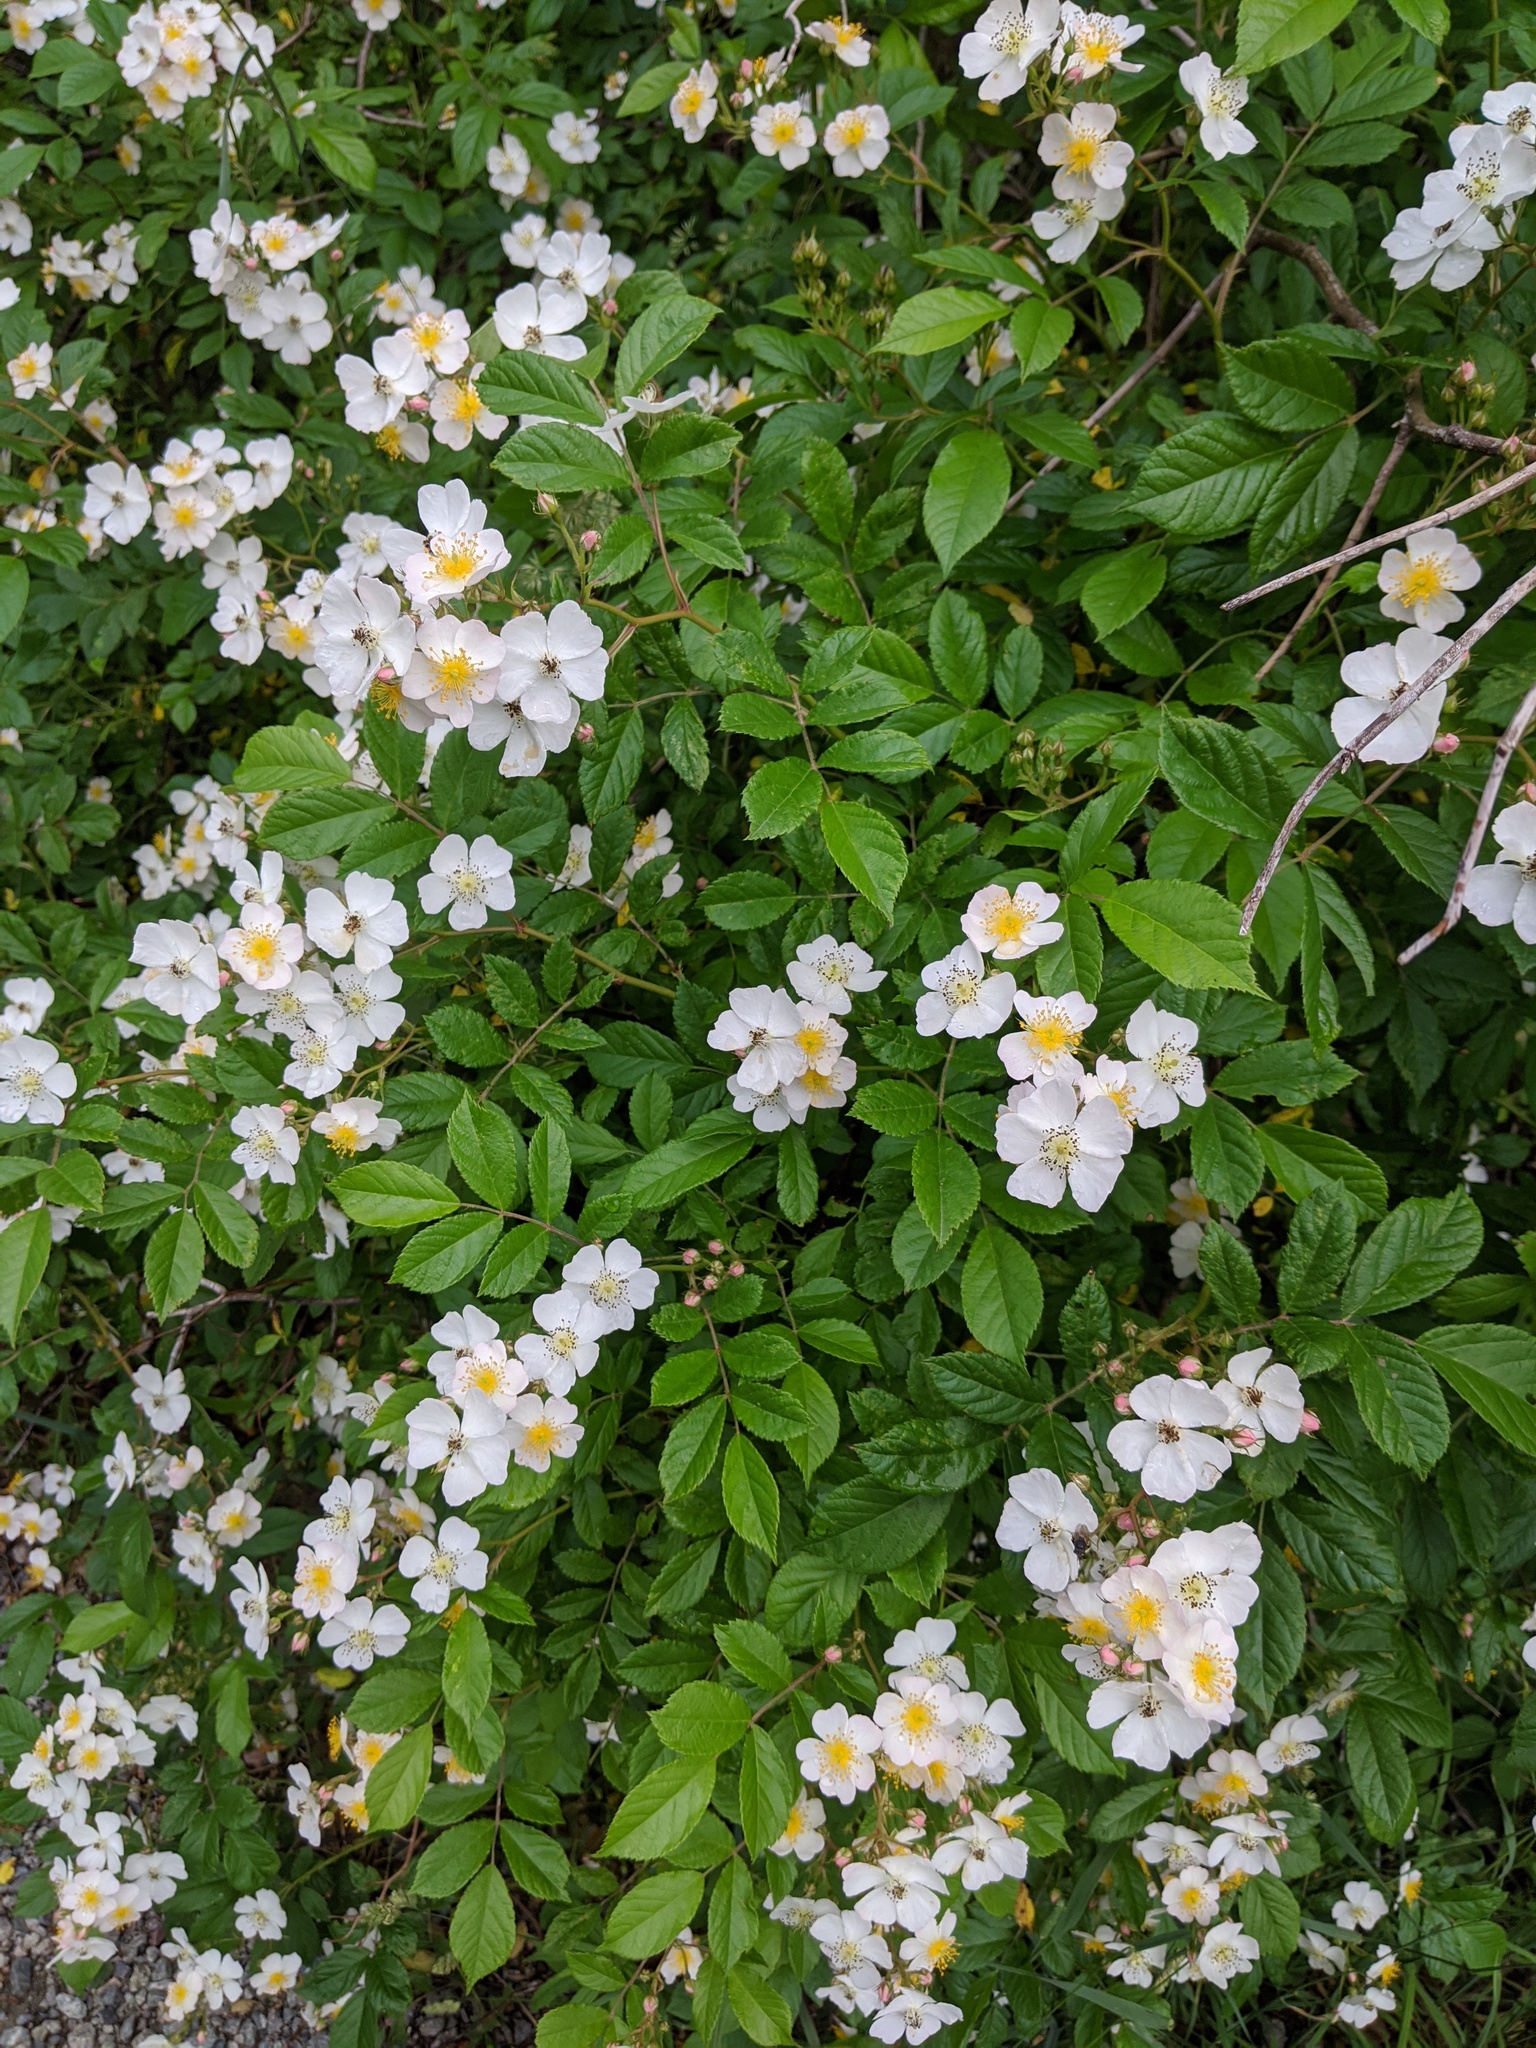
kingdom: Plantae
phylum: Tracheophyta
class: Magnoliopsida
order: Rosales
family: Rosaceae
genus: Rosa
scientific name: Rosa multiflora
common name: Multiflora rose
